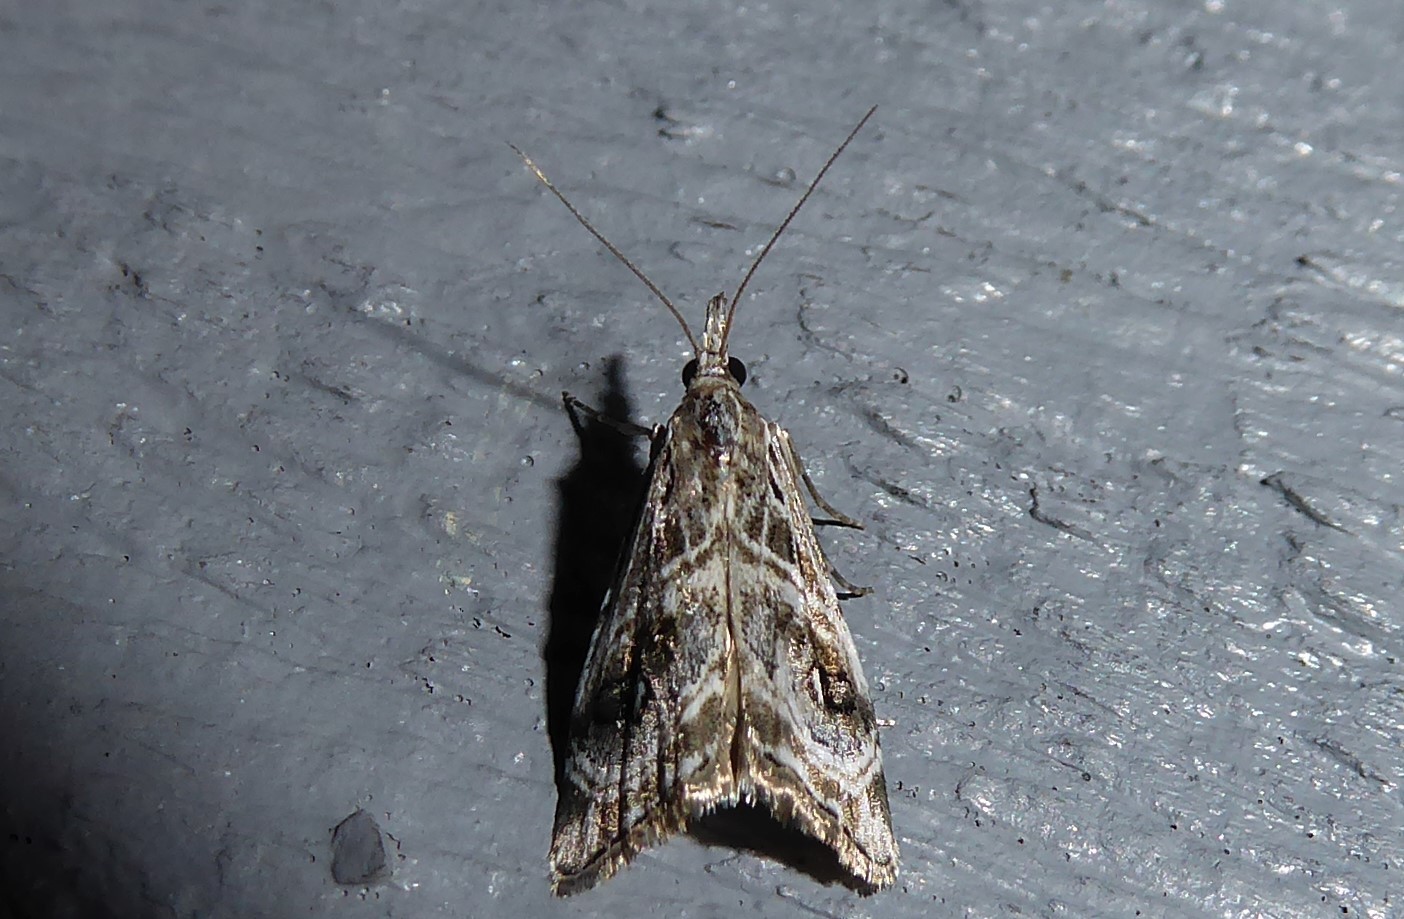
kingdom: Animalia
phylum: Arthropoda
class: Insecta
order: Lepidoptera
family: Crambidae
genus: Gadira
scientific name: Gadira acerella
